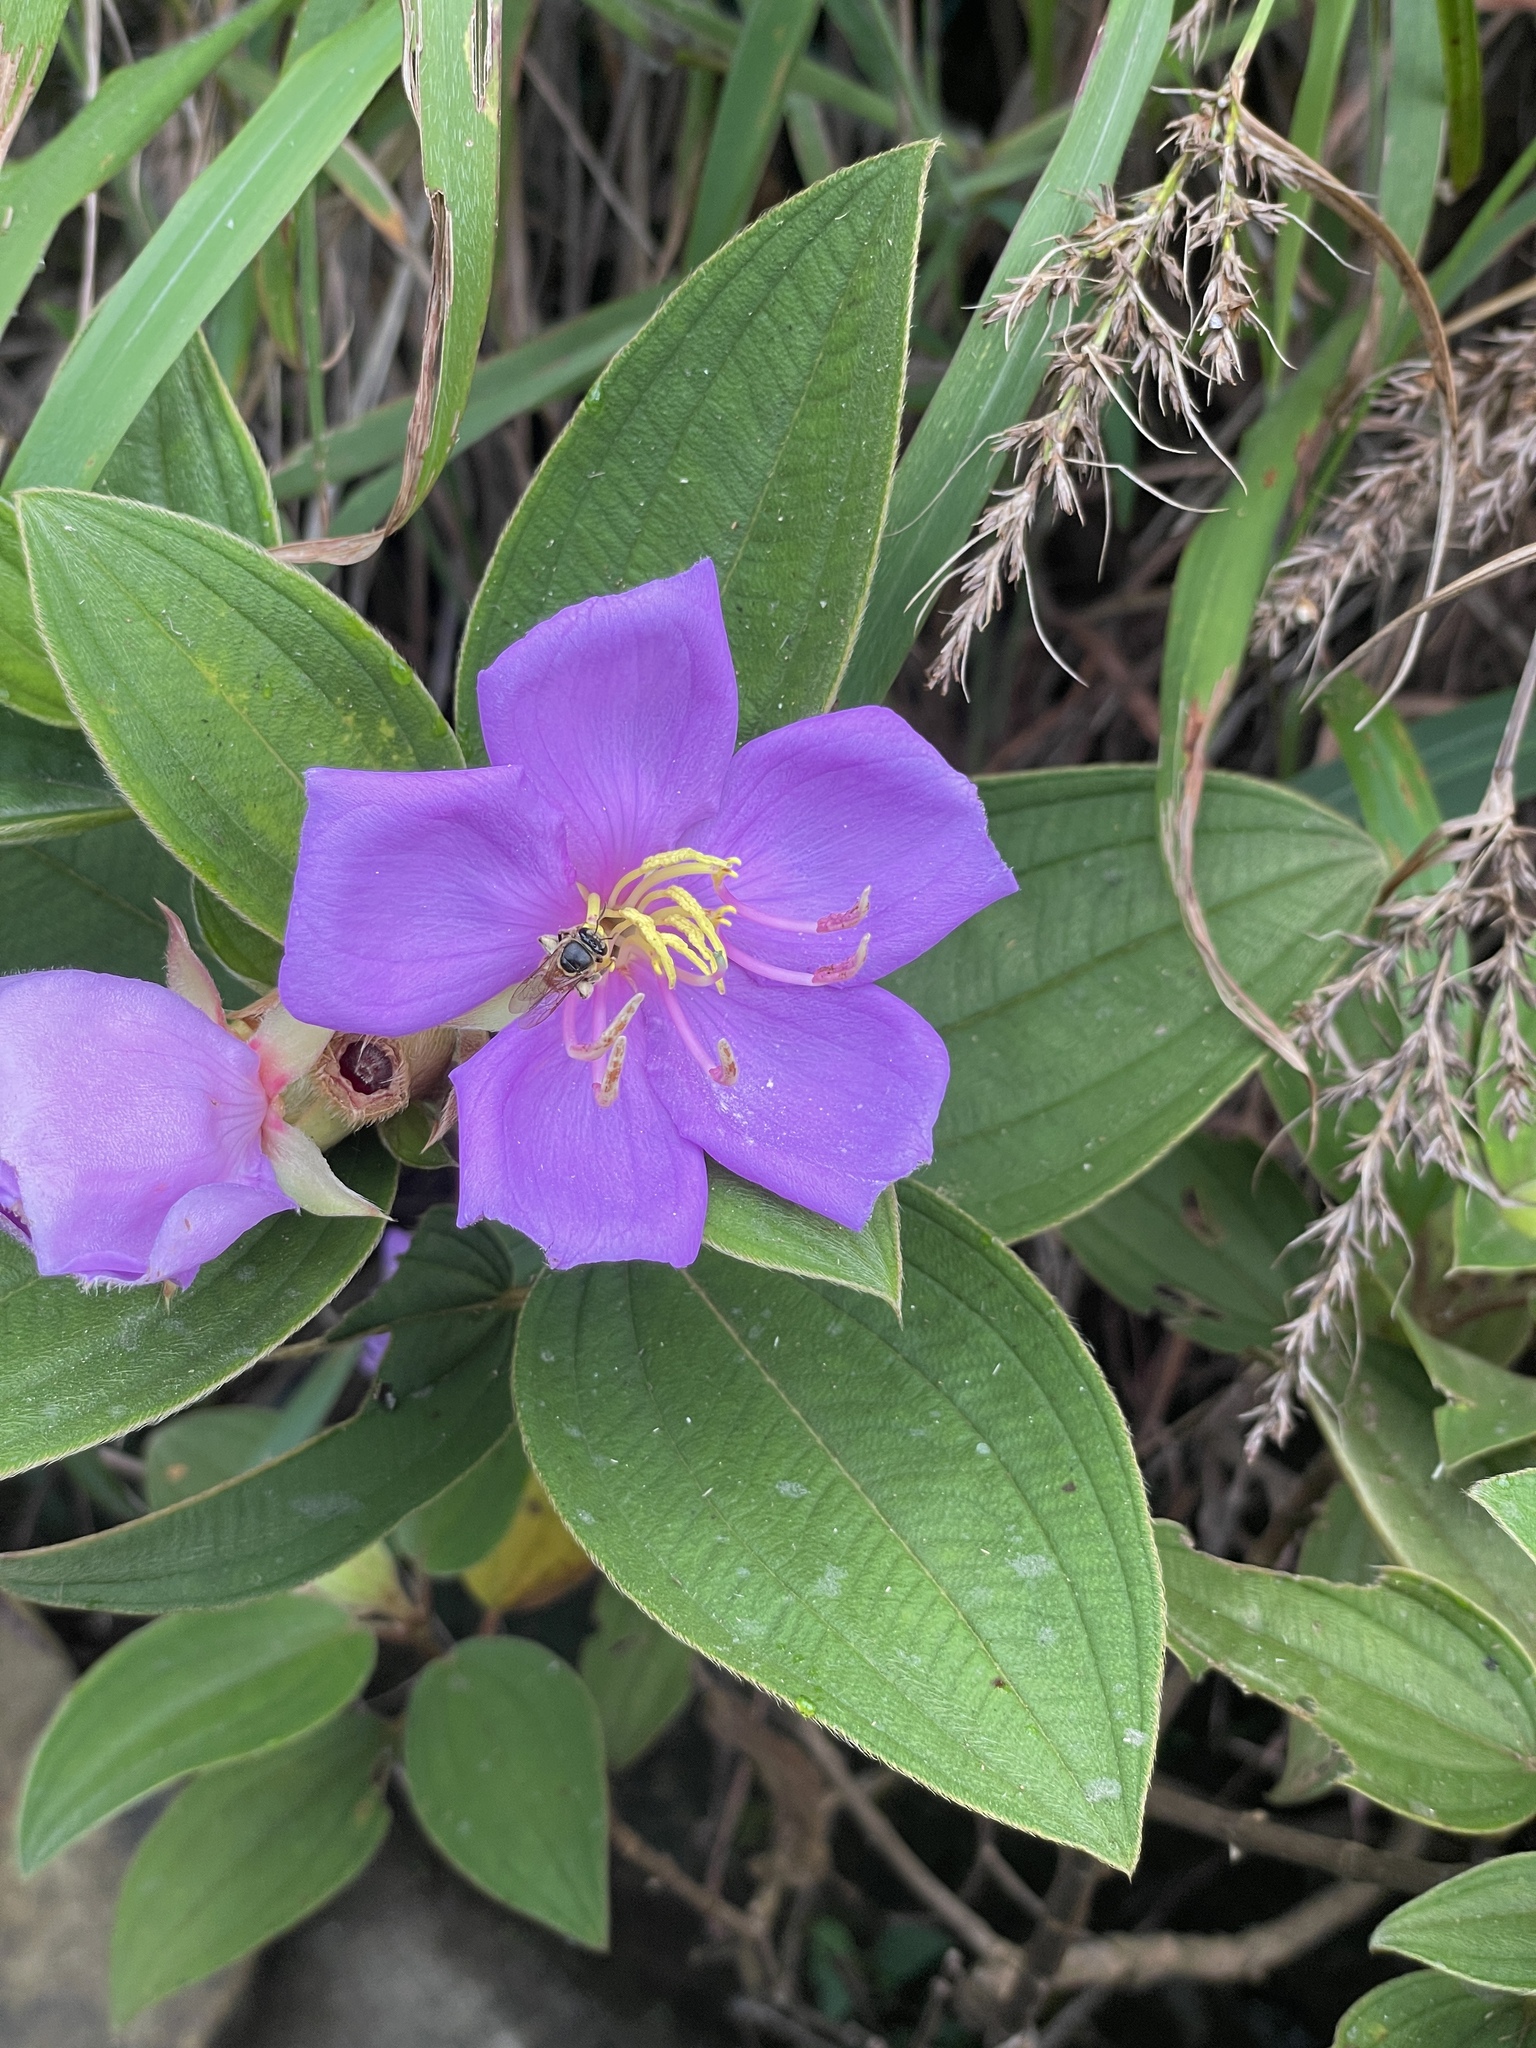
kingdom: Animalia
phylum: Arthropoda
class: Insecta
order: Hymenoptera
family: Halictidae
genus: Nomia
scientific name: Nomia penangensis
